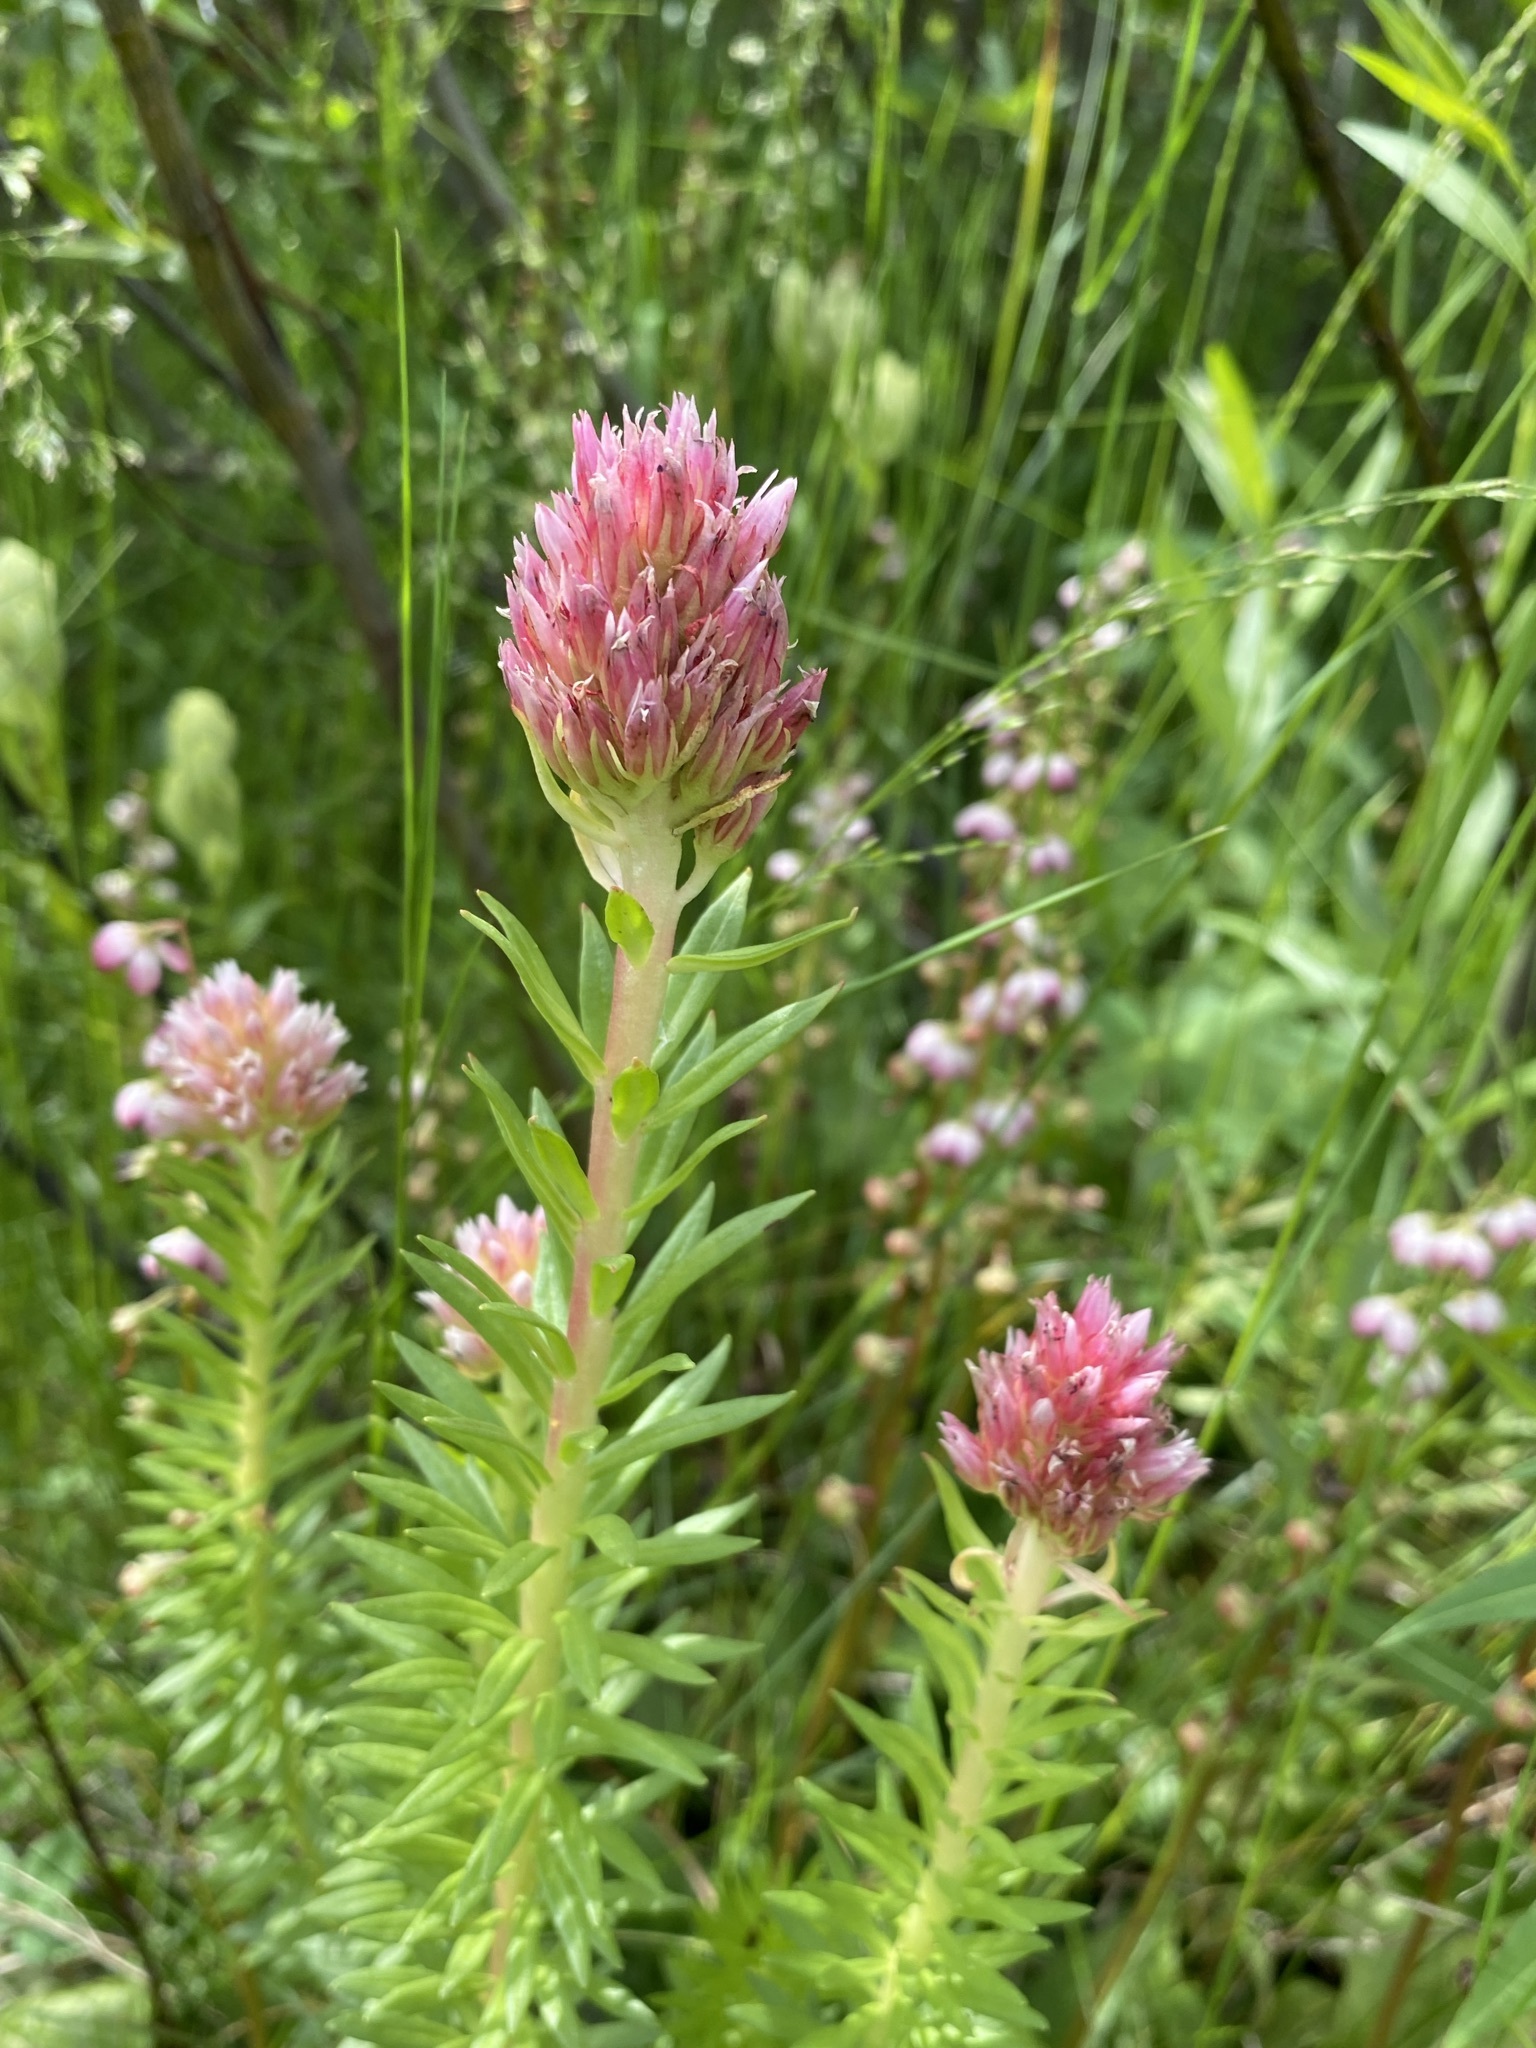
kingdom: Plantae
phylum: Tracheophyta
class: Magnoliopsida
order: Saxifragales
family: Crassulaceae
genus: Rhodiola
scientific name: Rhodiola rhodantha
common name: Red orpine
